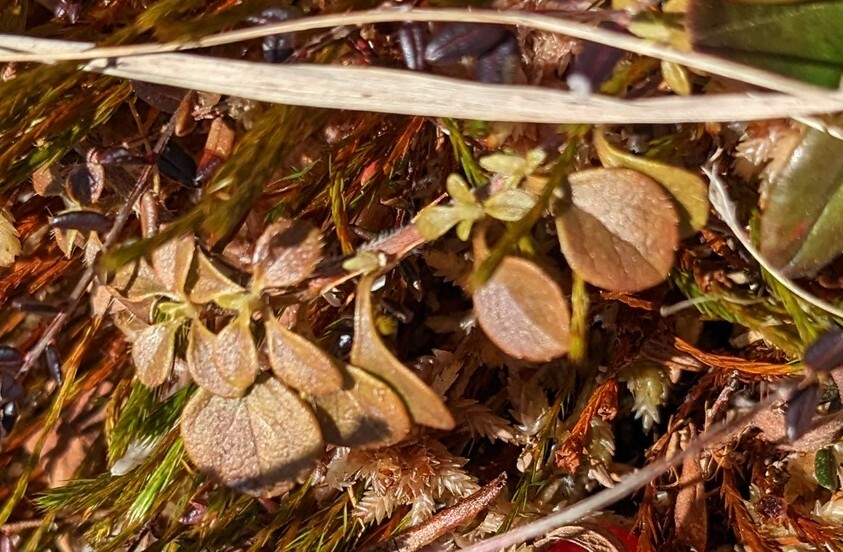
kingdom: Plantae
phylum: Tracheophyta
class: Magnoliopsida
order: Dipsacales
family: Caprifoliaceae
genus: Linnaea
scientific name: Linnaea borealis
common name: Twinflower
